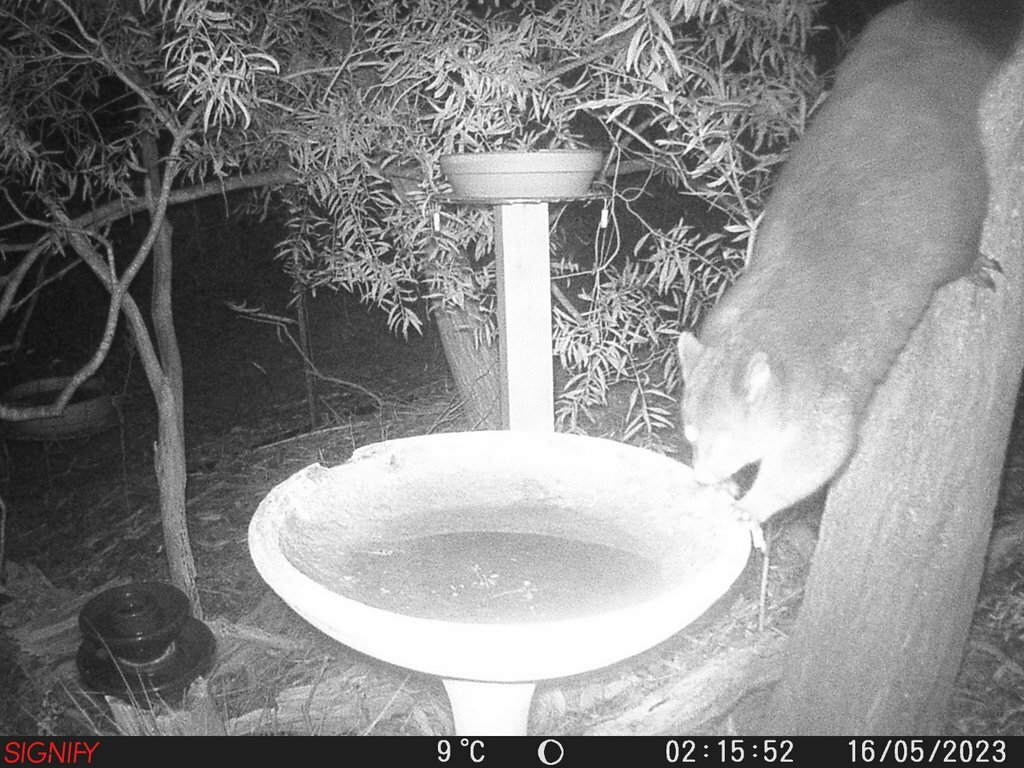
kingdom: Animalia
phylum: Chordata
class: Mammalia
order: Diprotodontia
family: Phalangeridae
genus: Trichosurus
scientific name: Trichosurus vulpecula
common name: Common brushtail
